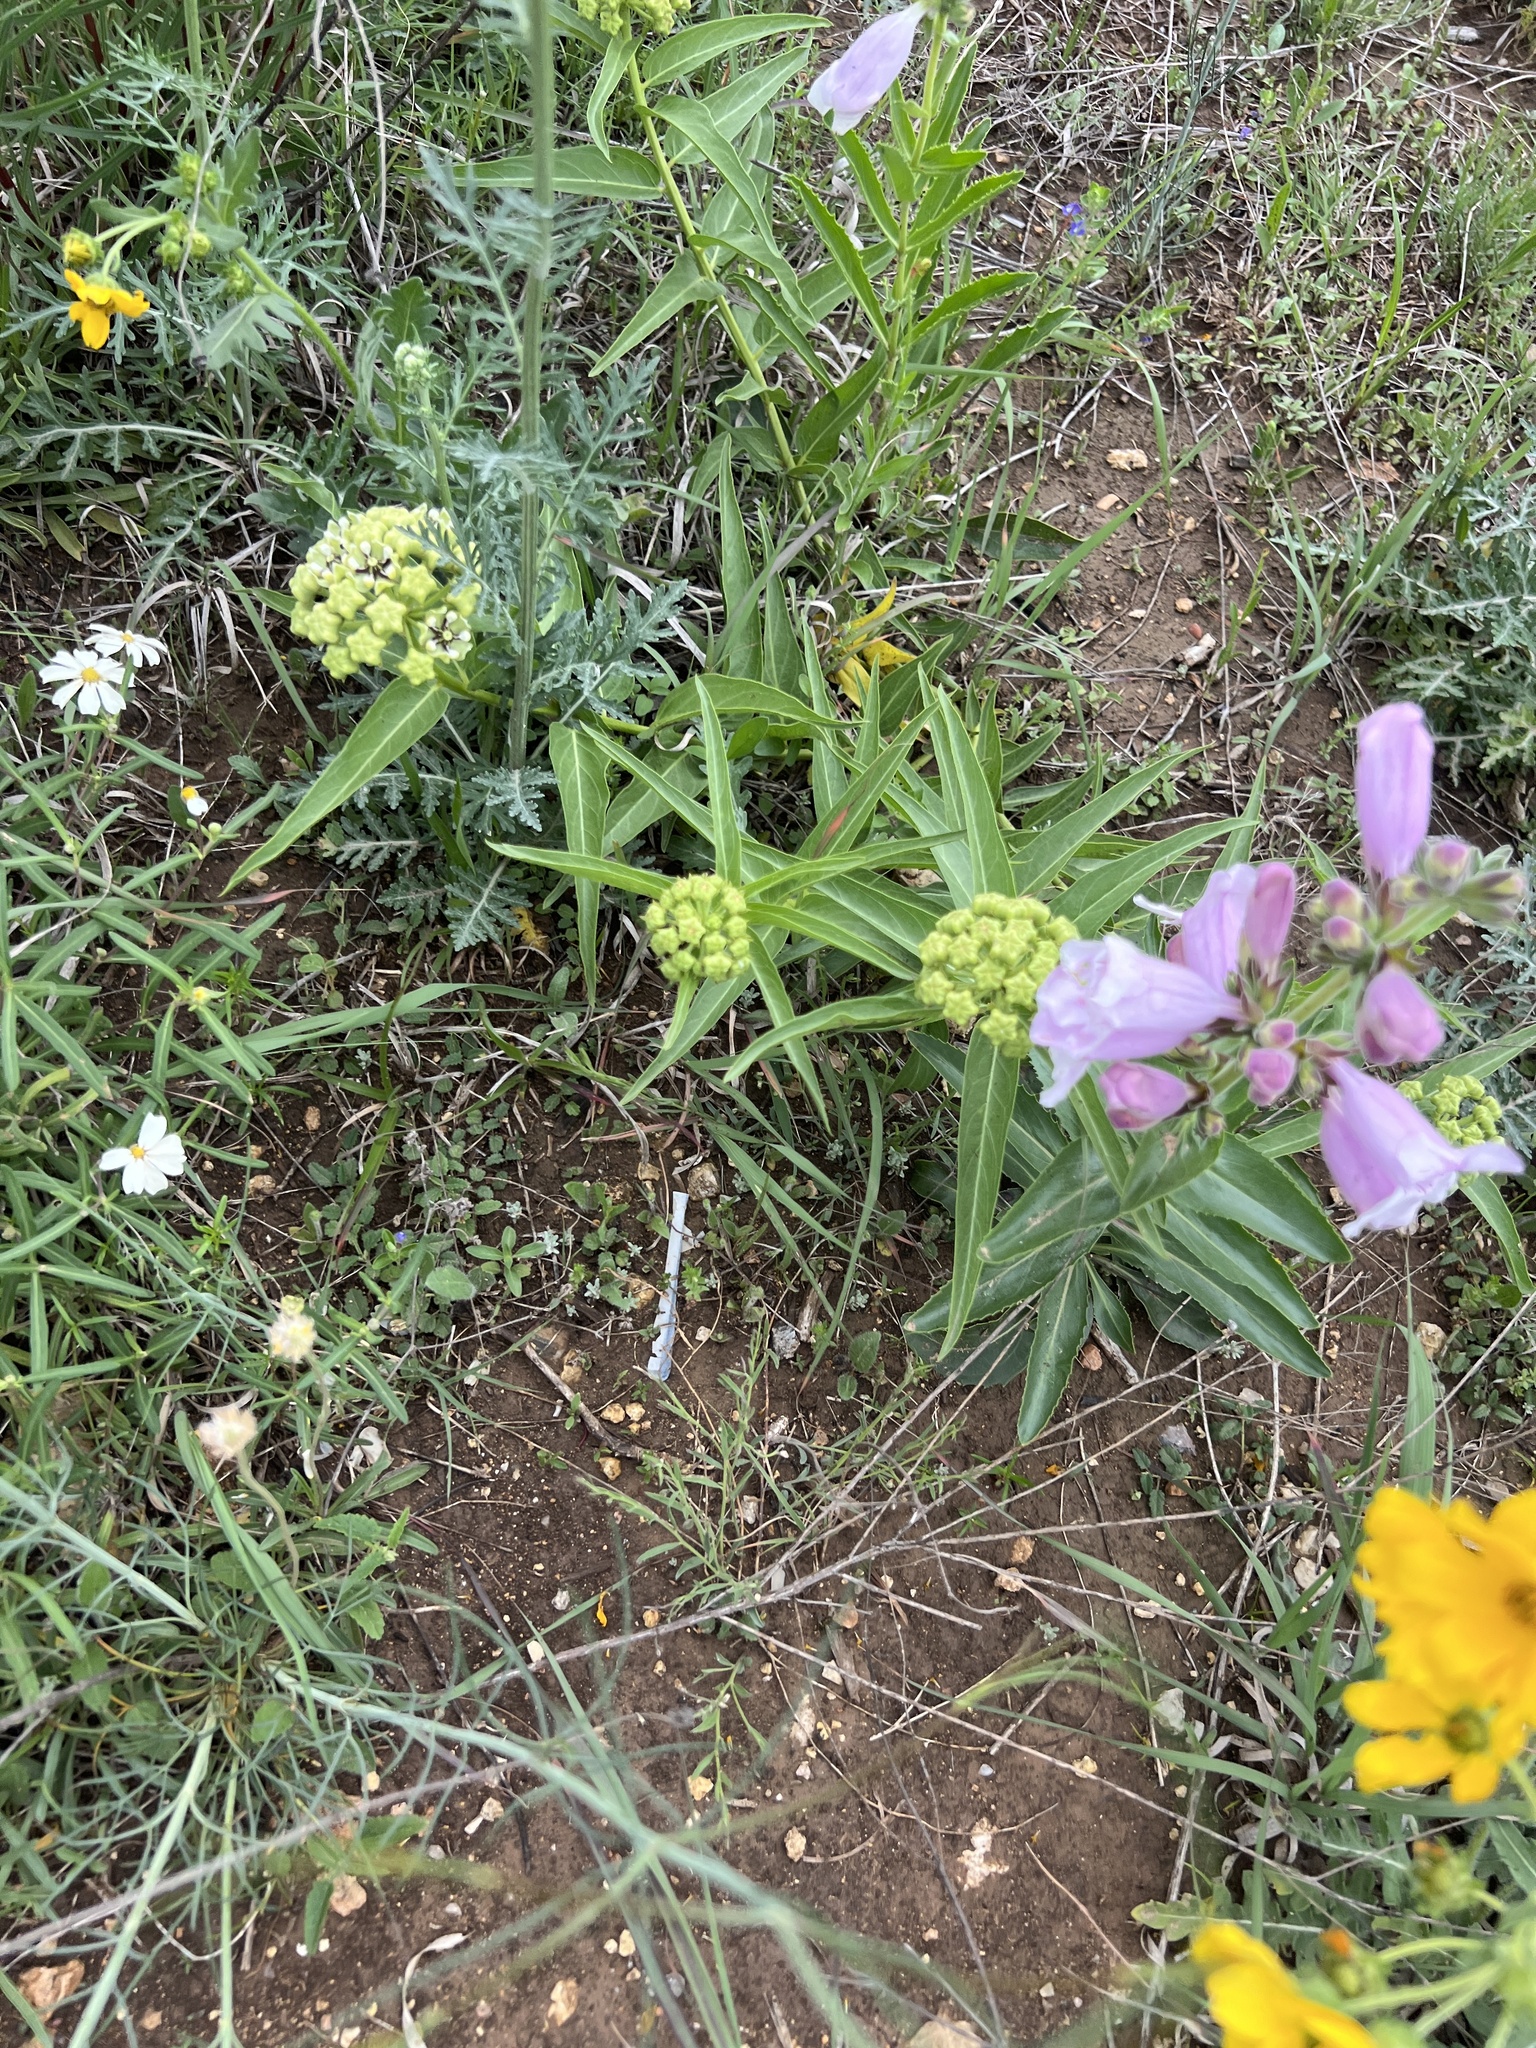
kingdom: Plantae
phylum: Tracheophyta
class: Magnoliopsida
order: Gentianales
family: Apocynaceae
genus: Asclepias
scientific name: Asclepias asperula
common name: Antelope horns
